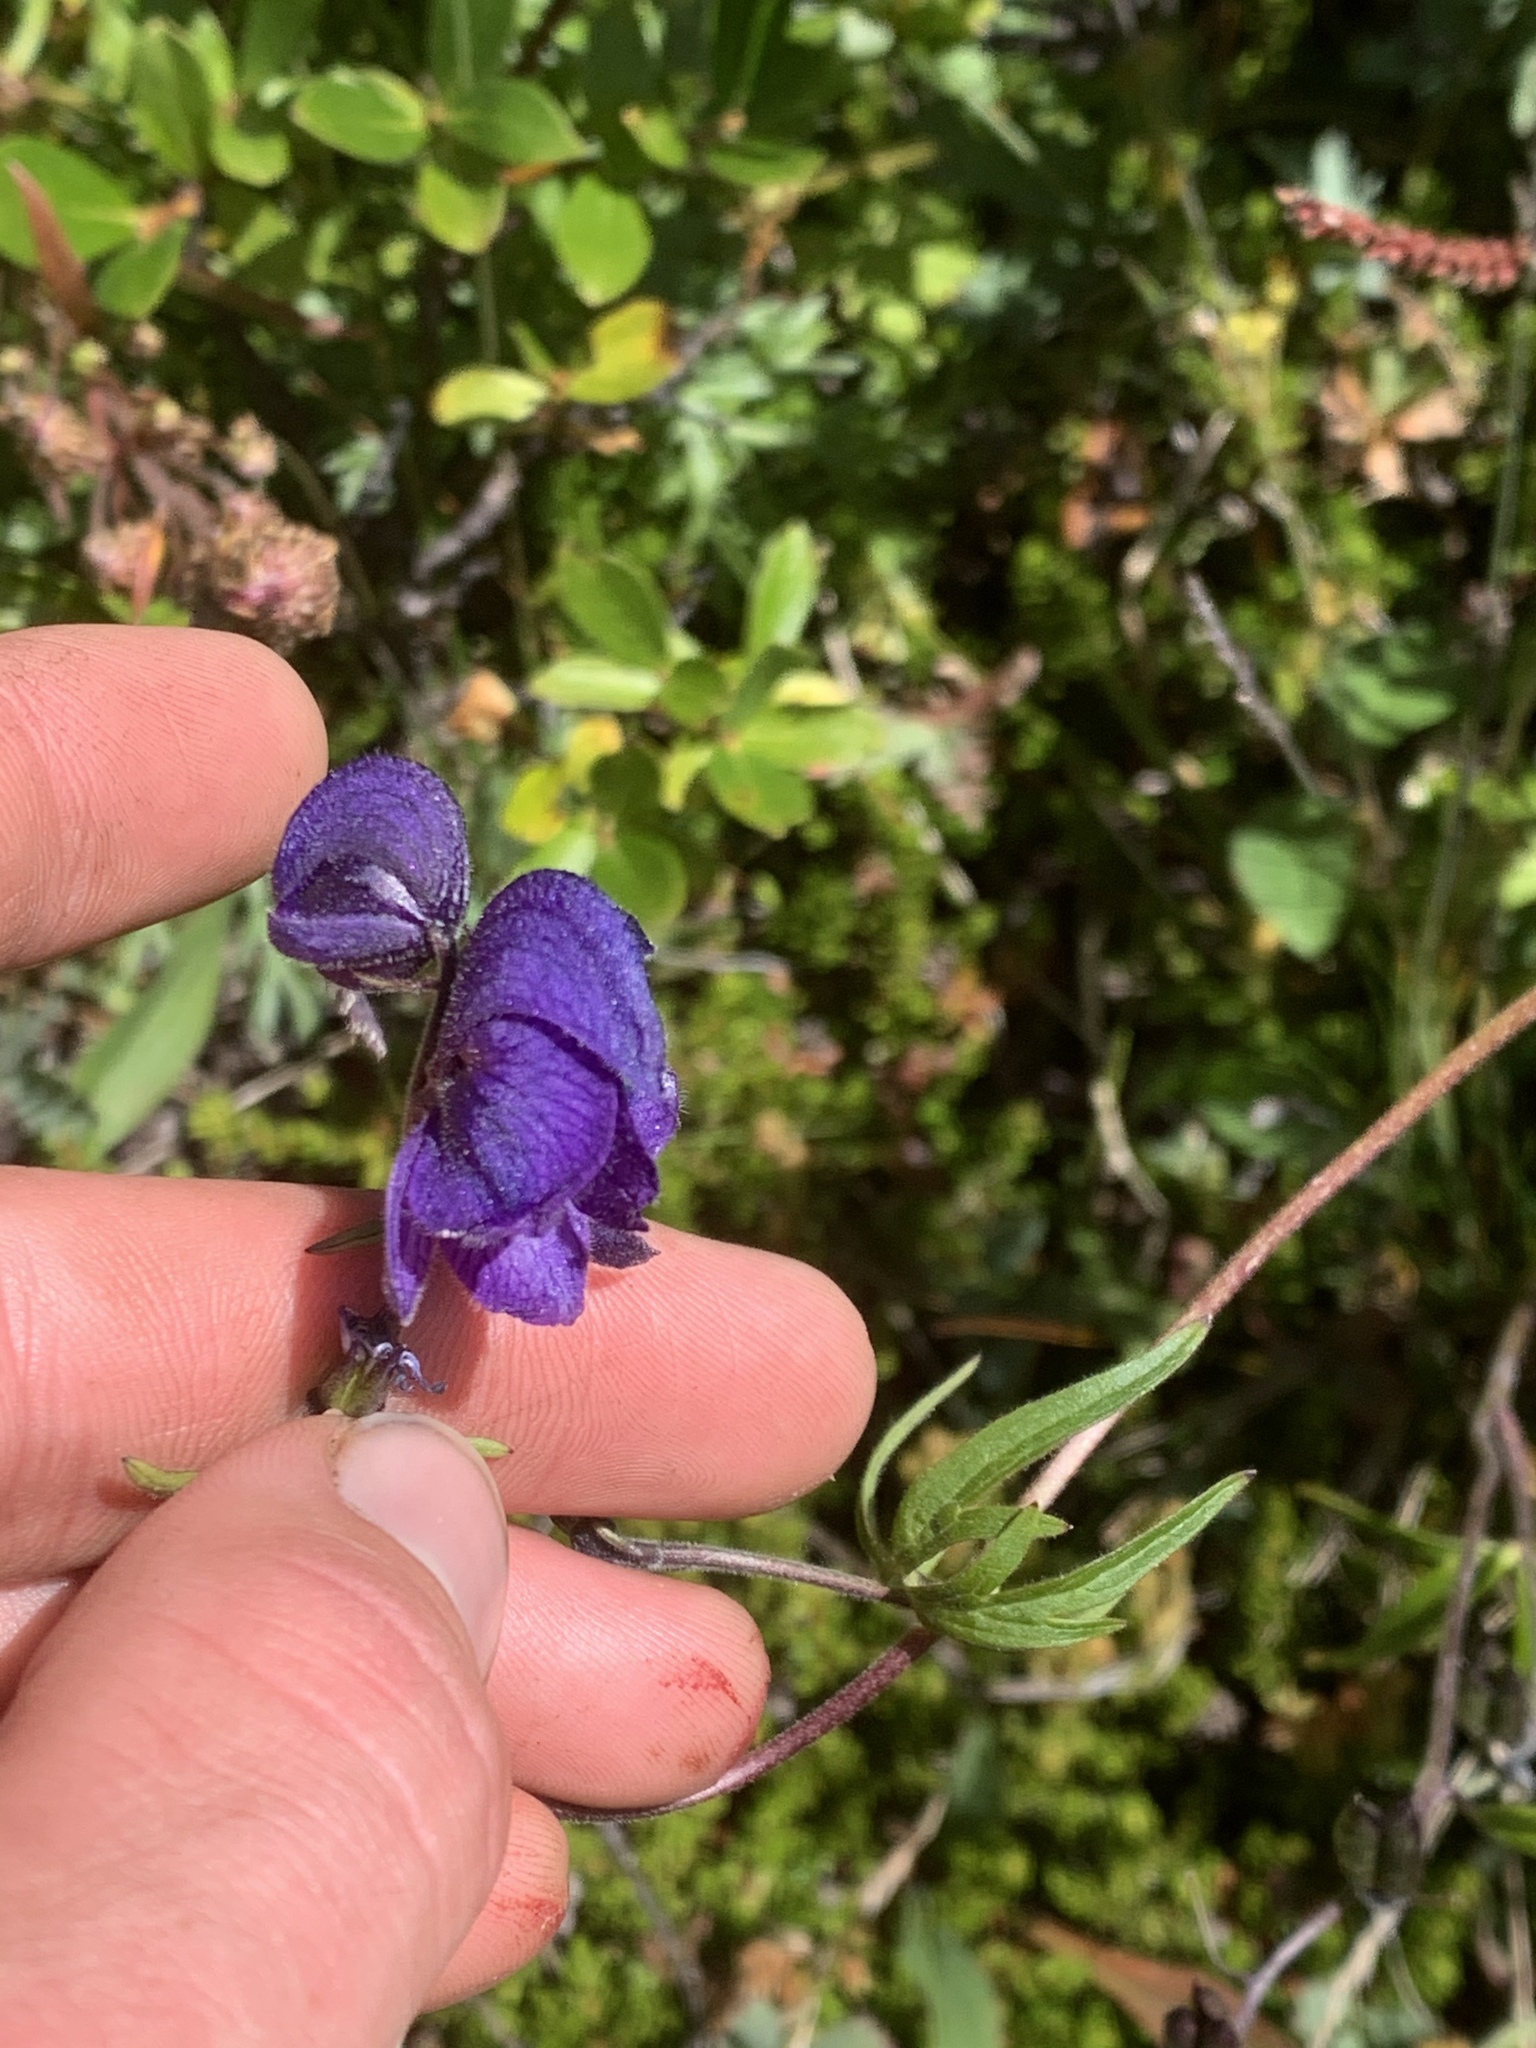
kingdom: Plantae
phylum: Tracheophyta
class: Magnoliopsida
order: Ranunculales
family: Ranunculaceae
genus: Aconitum
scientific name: Aconitum delphiniifolium
